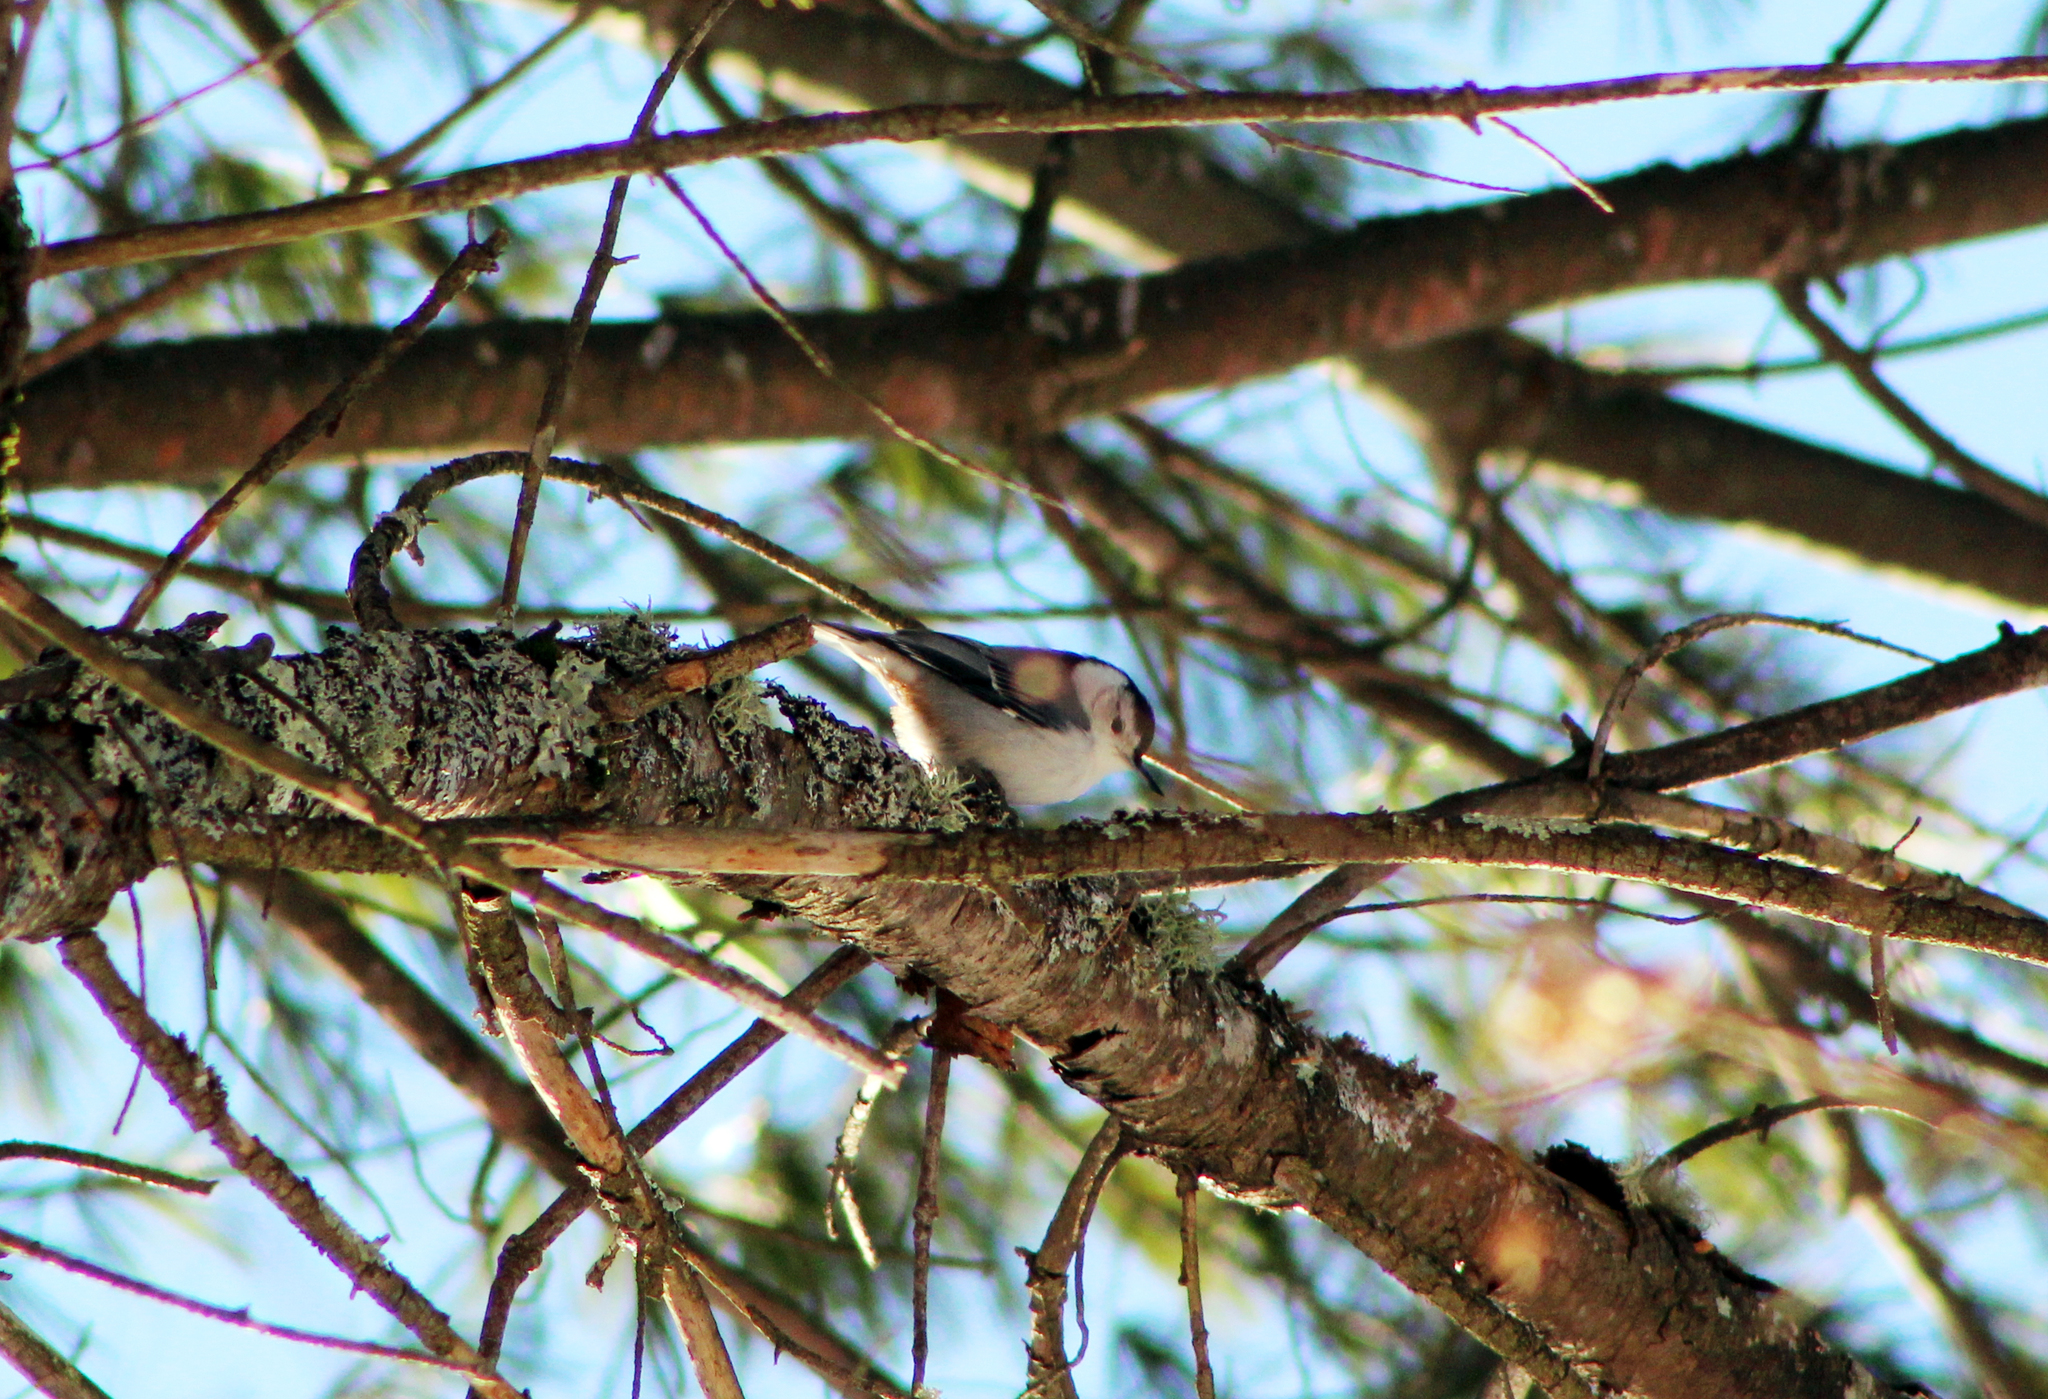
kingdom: Animalia
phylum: Chordata
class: Aves
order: Passeriformes
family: Sittidae
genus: Sitta
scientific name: Sitta carolinensis
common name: White-breasted nuthatch
